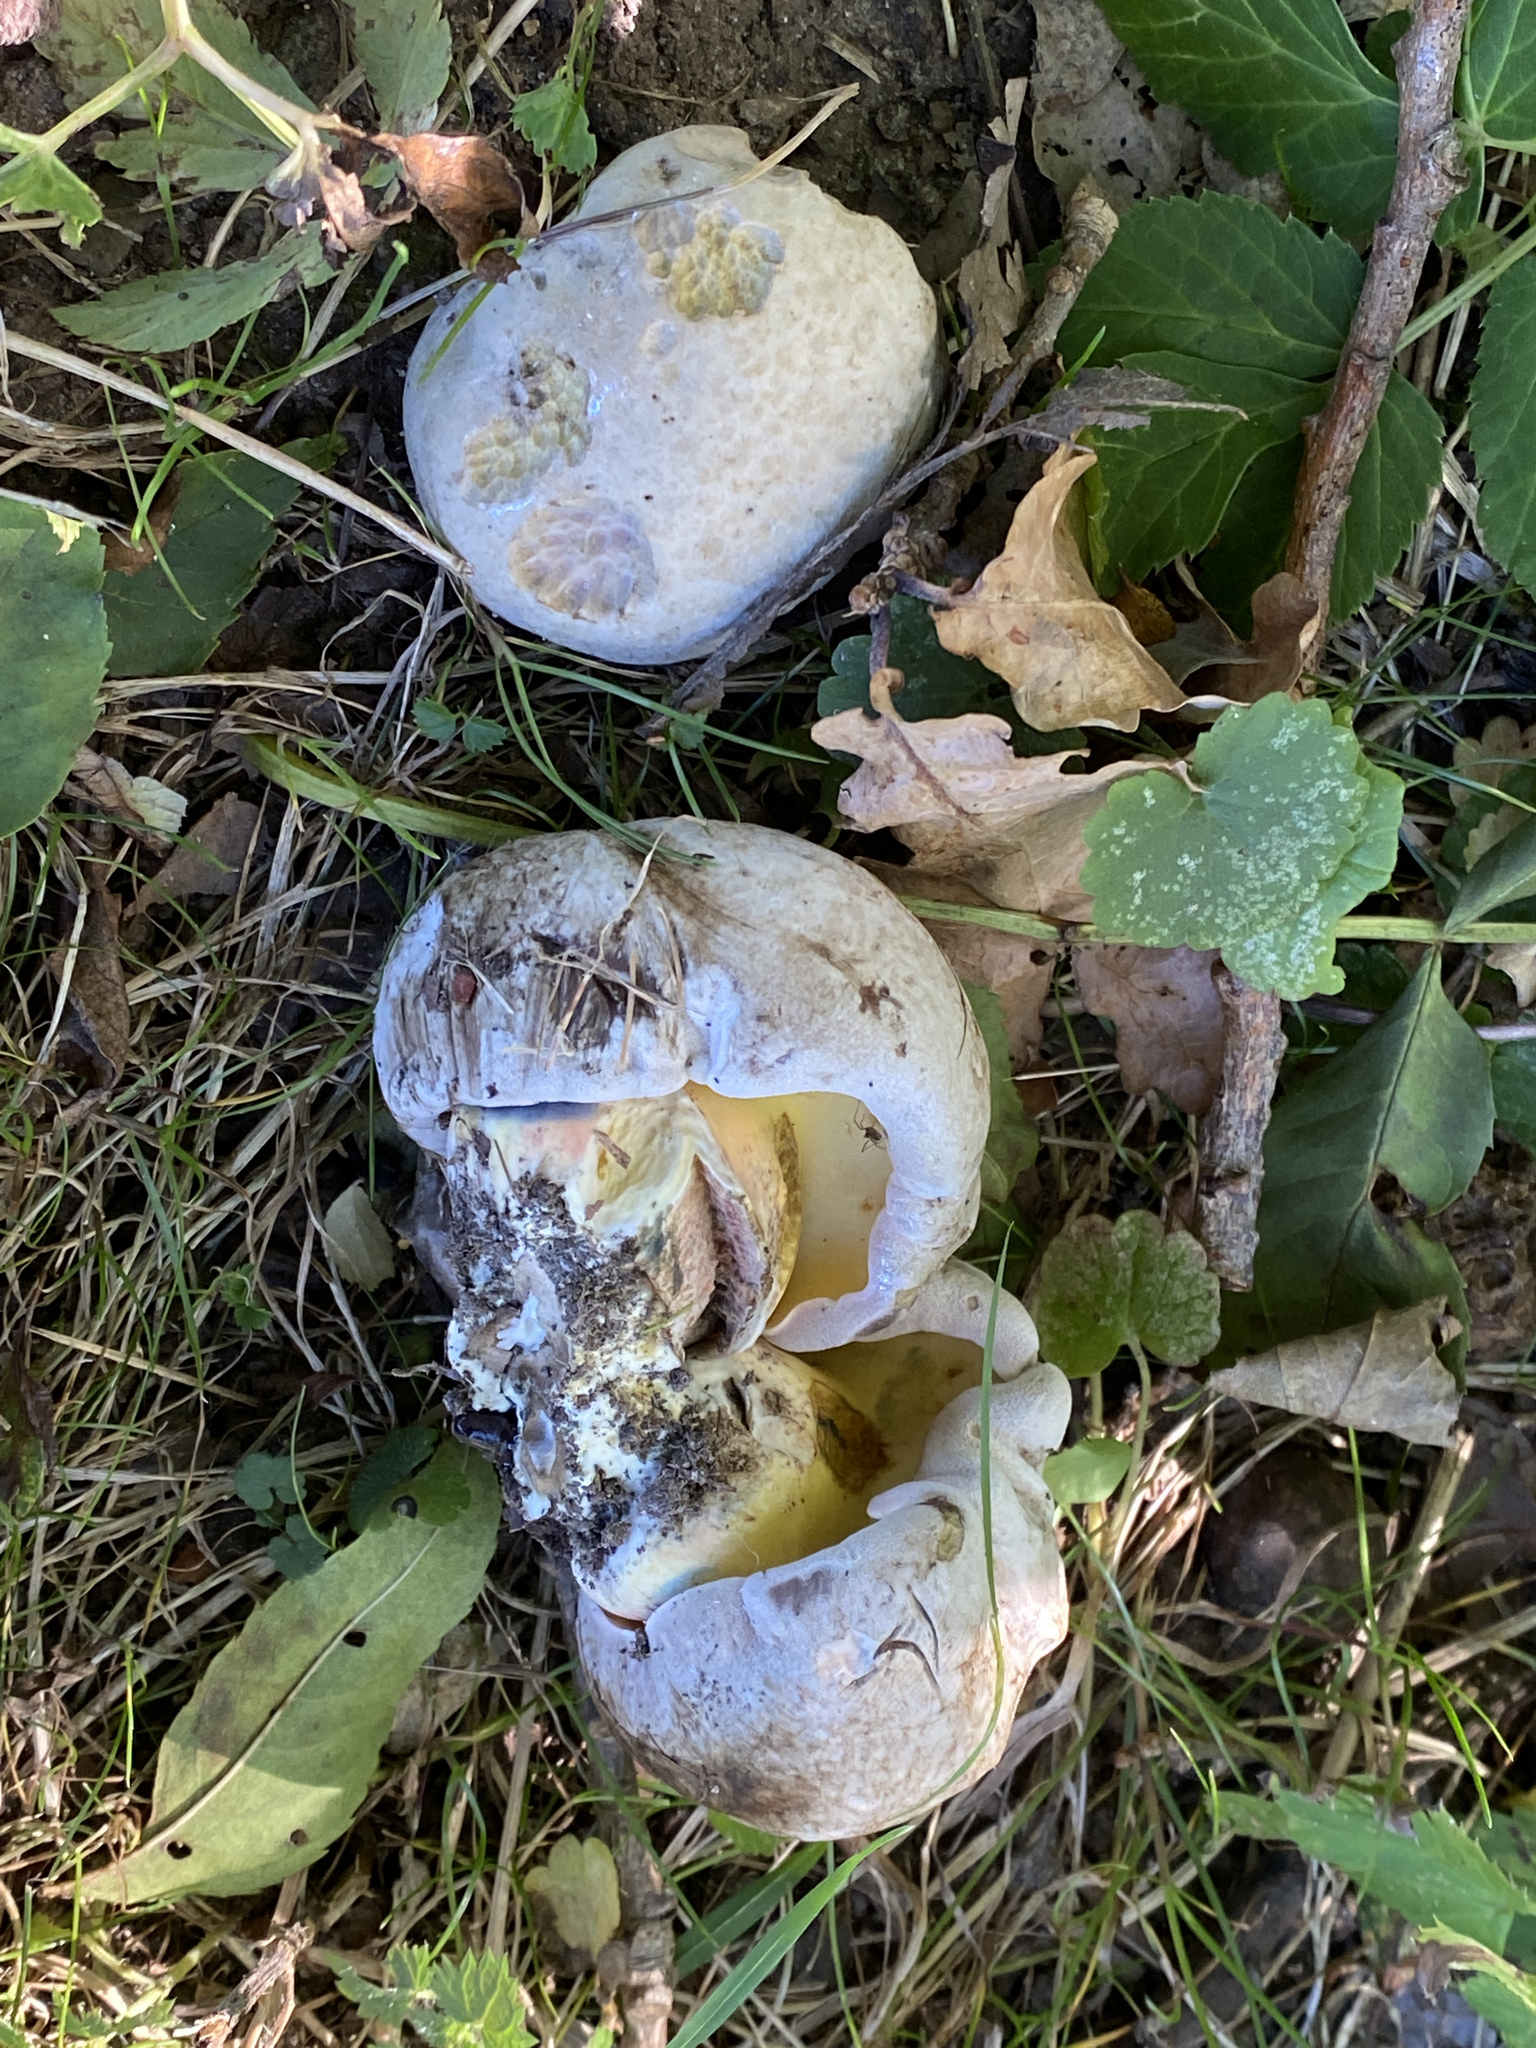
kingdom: Fungi
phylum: Basidiomycota
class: Agaricomycetes
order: Boletales
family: Boletaceae
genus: Caloboletus
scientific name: Caloboletus radicans
